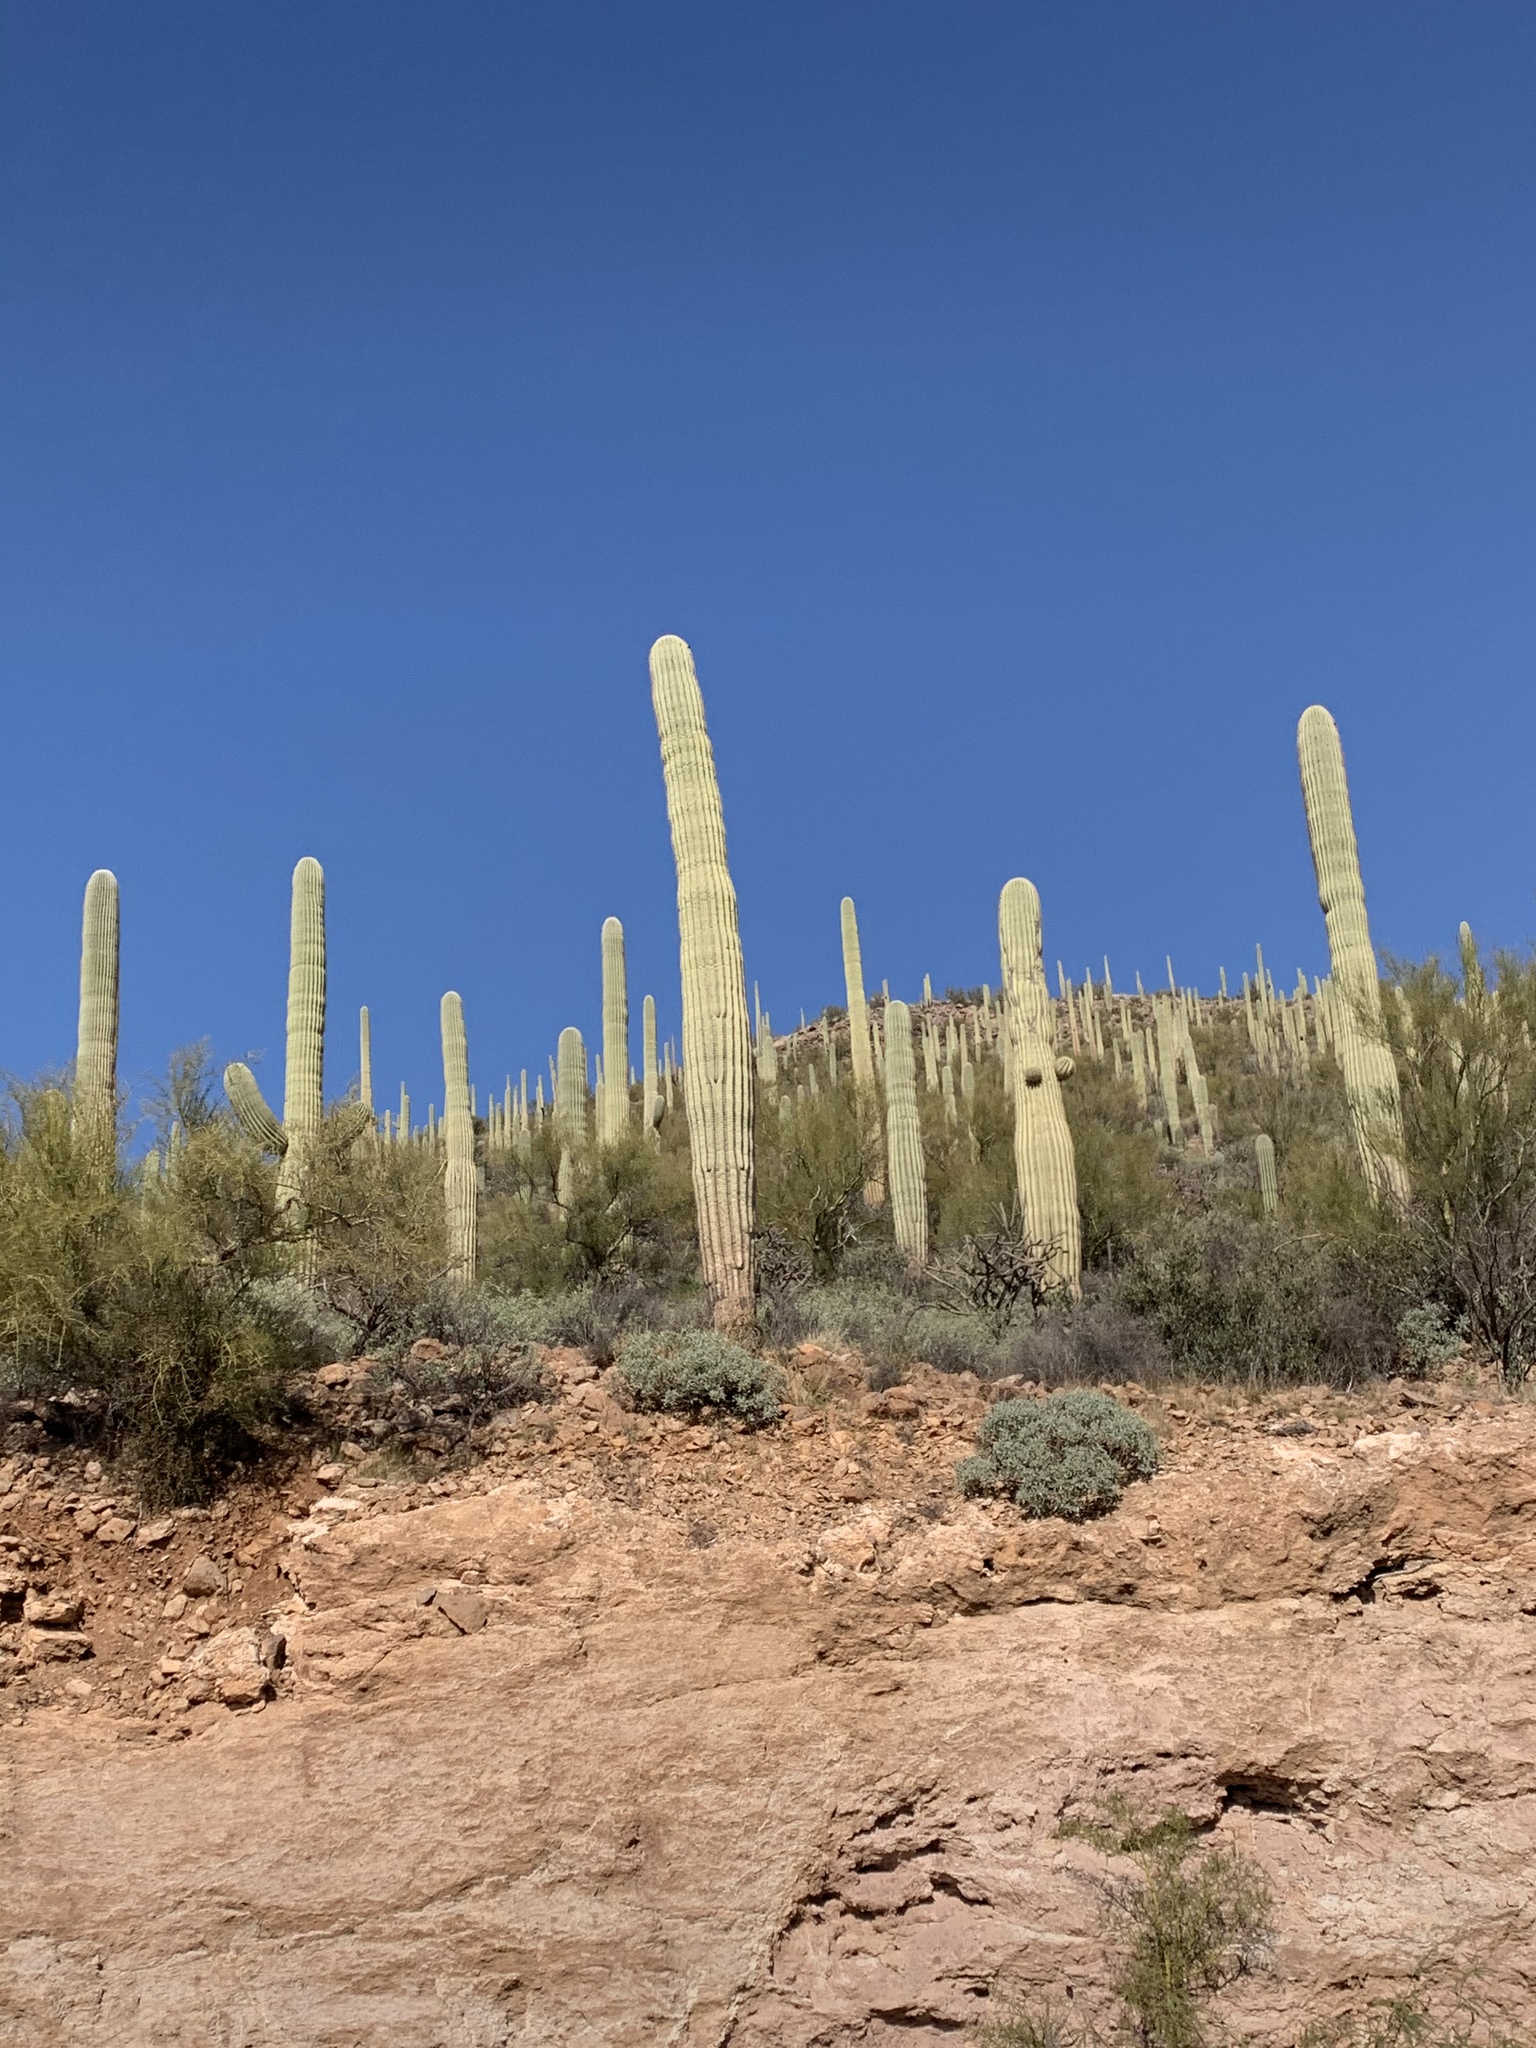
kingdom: Plantae
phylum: Tracheophyta
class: Magnoliopsida
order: Caryophyllales
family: Cactaceae
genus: Carnegiea
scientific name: Carnegiea gigantea
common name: Saguaro
